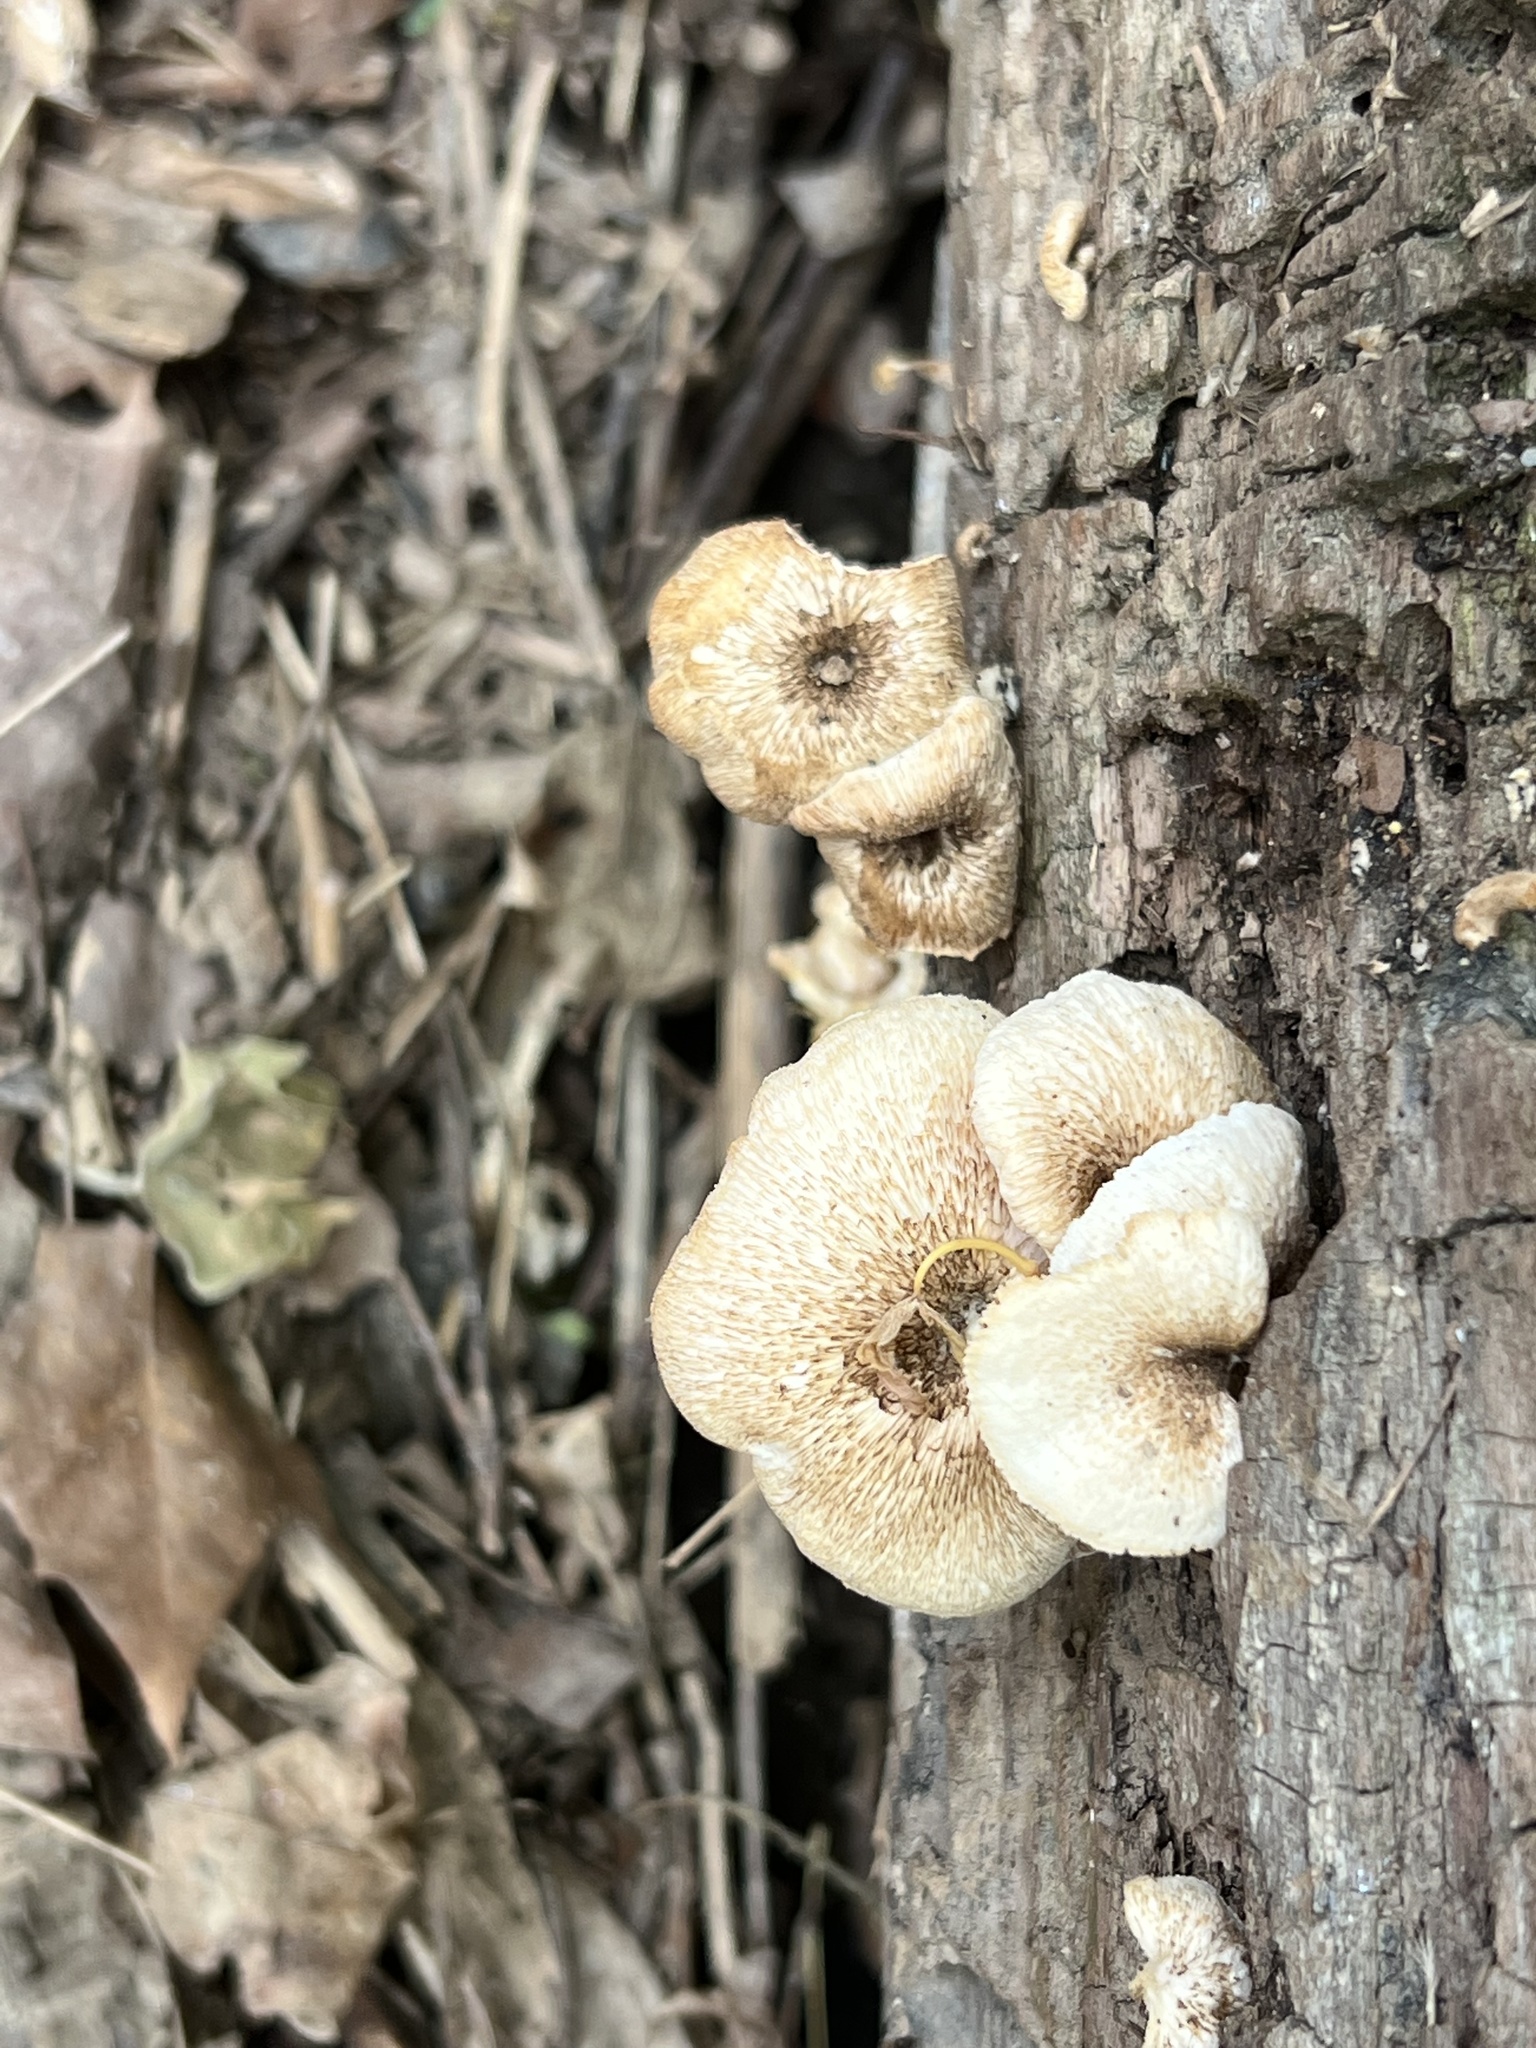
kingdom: Fungi
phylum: Basidiomycota
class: Agaricomycetes
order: Polyporales
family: Polyporaceae
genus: Lentinus
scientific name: Lentinus tigrinus
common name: Tiger sawgill
